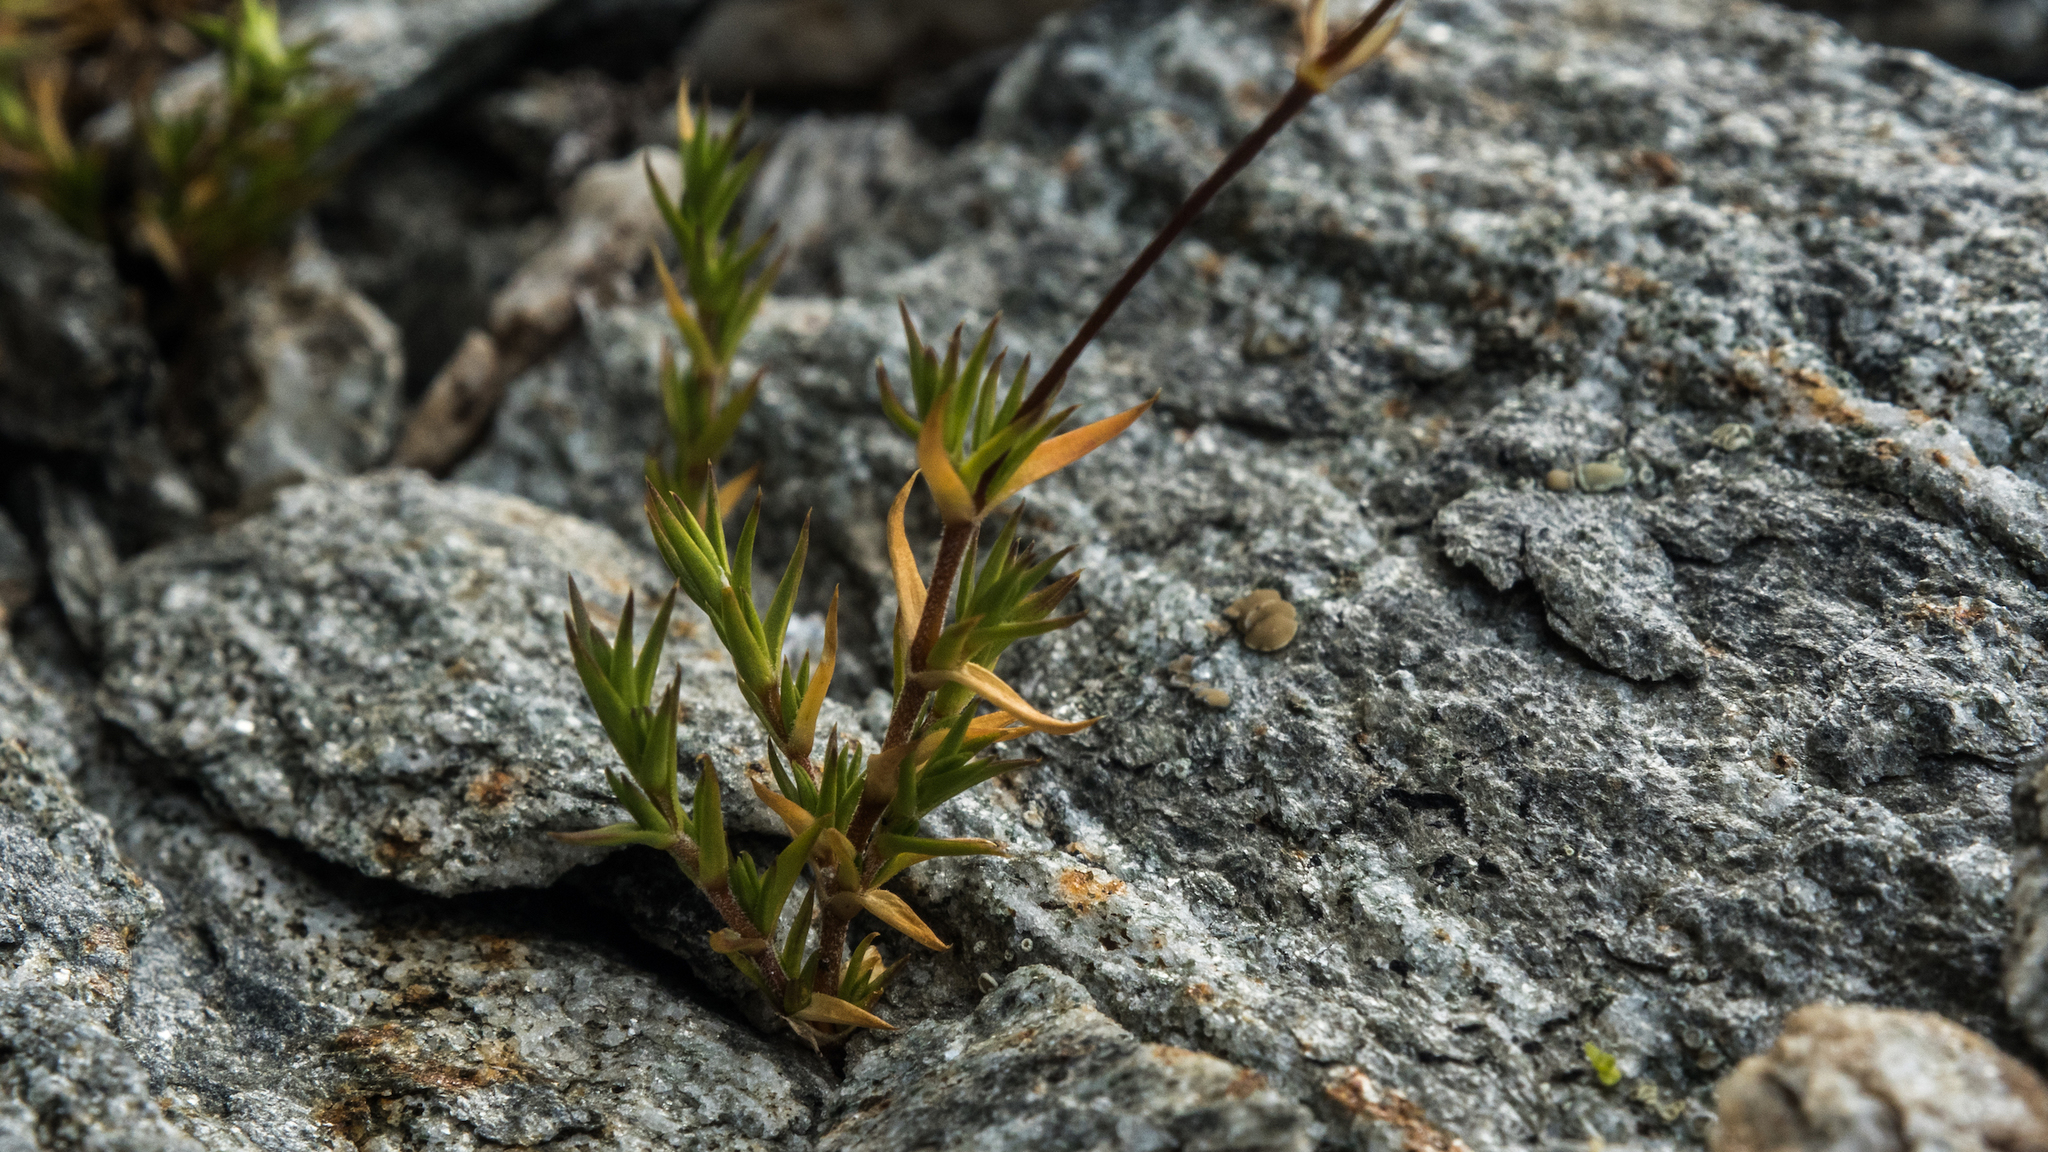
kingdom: Plantae
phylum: Tracheophyta
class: Magnoliopsida
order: Caryophyllales
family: Caryophyllaceae
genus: Stellaria
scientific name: Stellaria gracilenta
